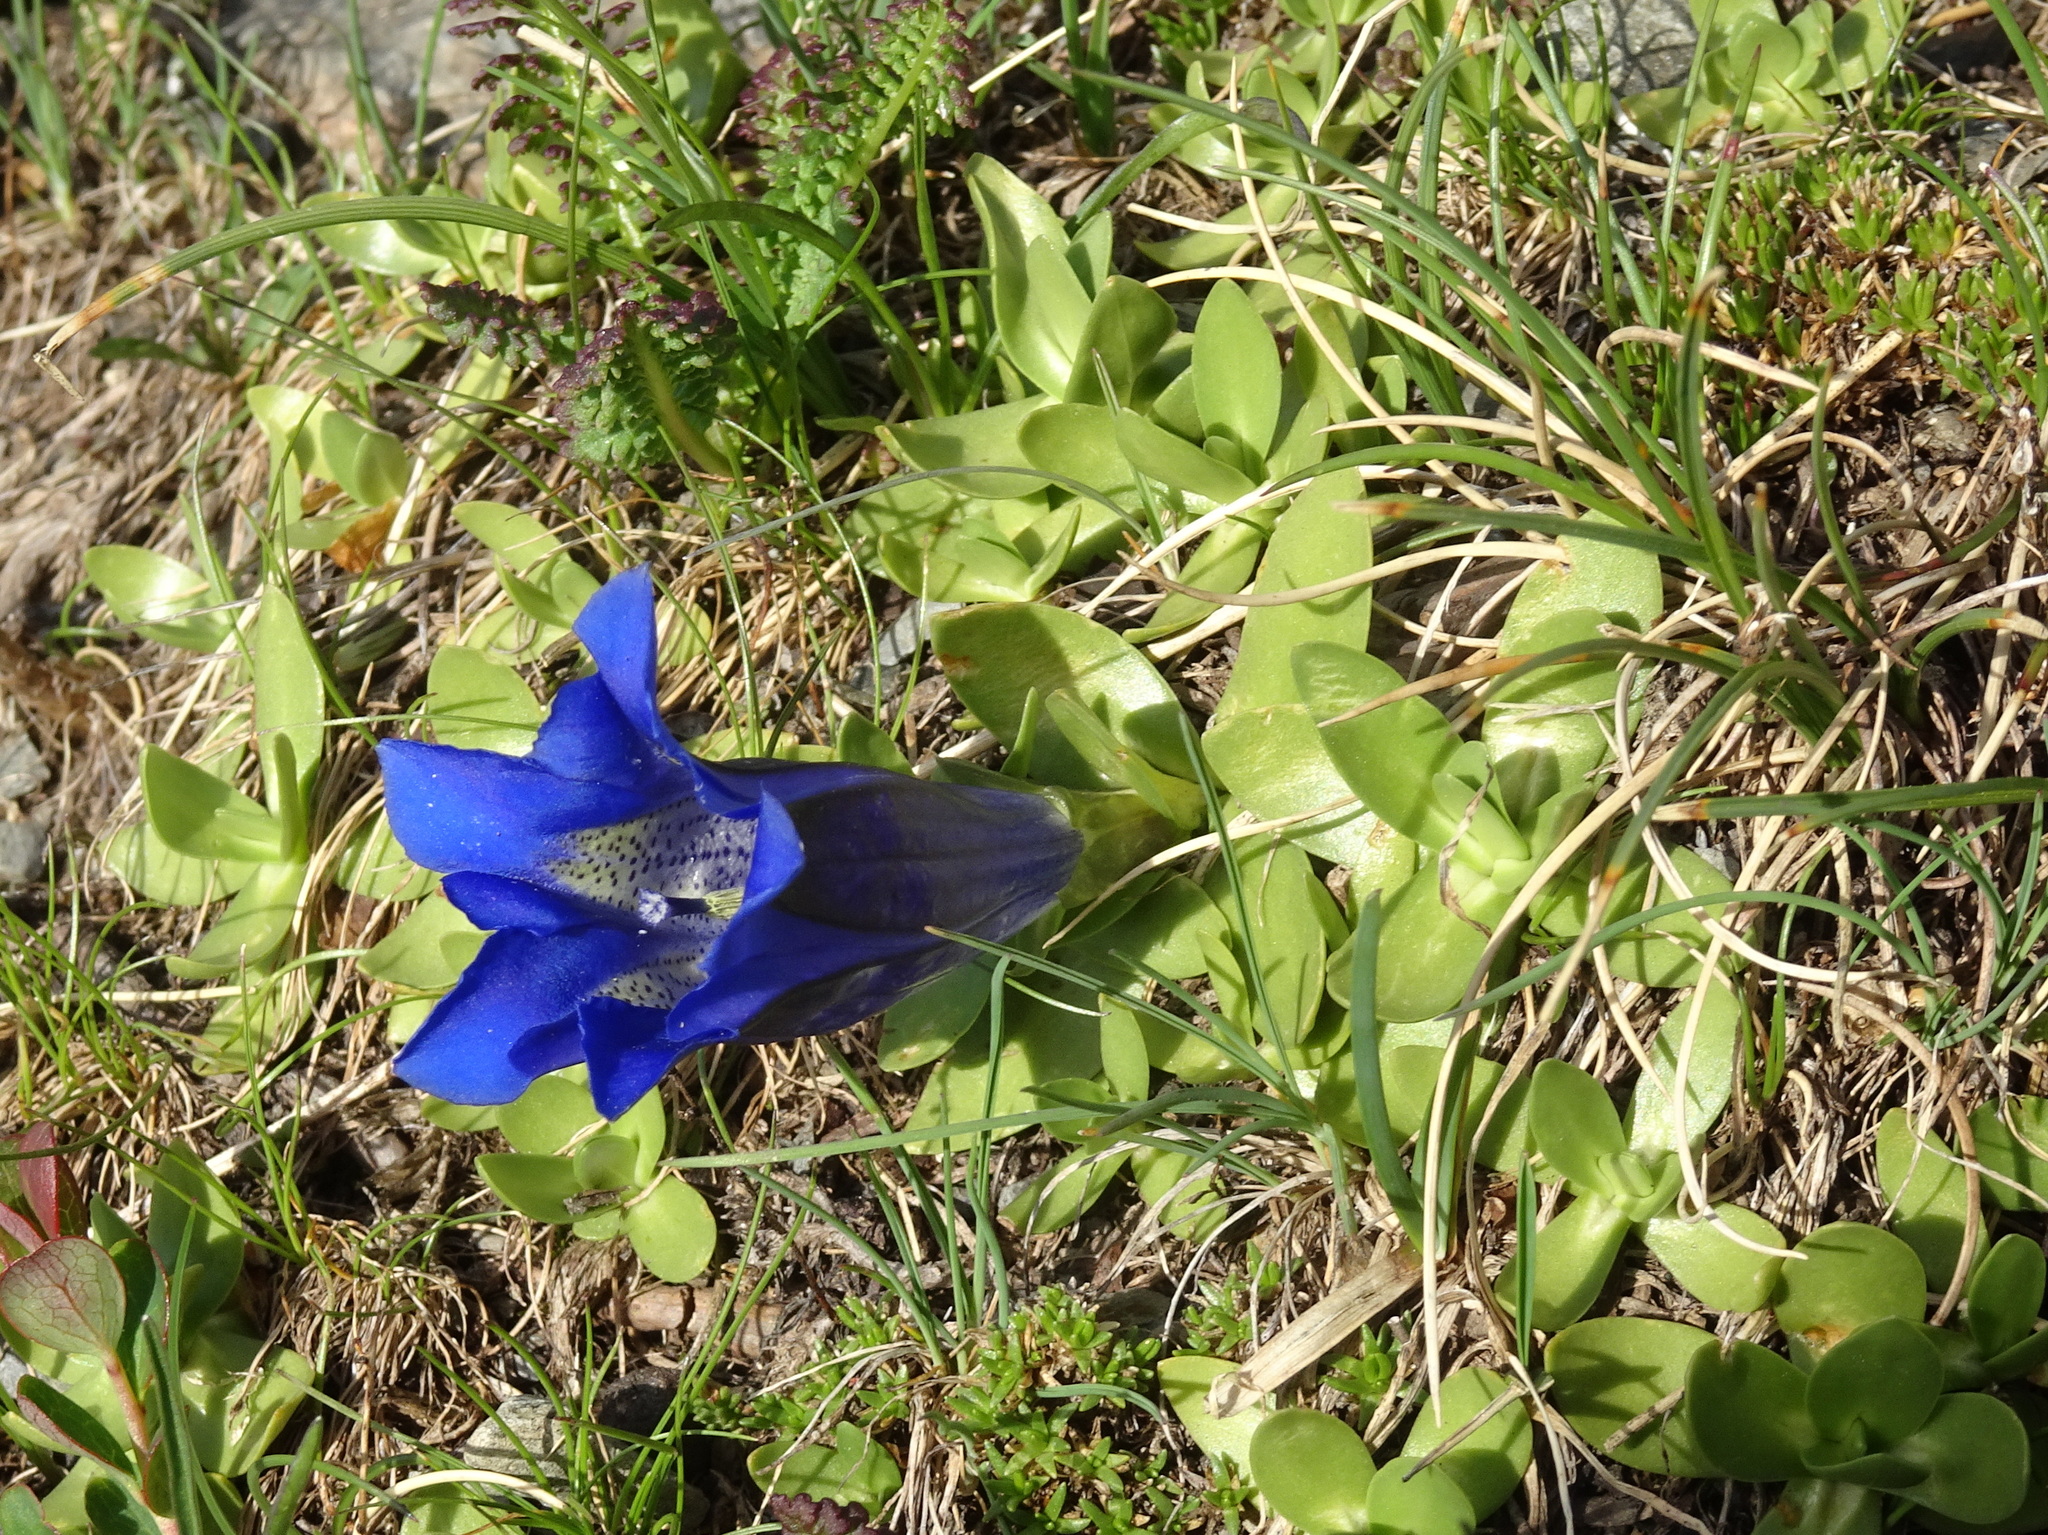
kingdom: Plantae
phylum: Tracheophyta
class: Magnoliopsida
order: Gentianales
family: Gentianaceae
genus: Gentiana
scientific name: Gentiana alpina
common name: Southern gentian
